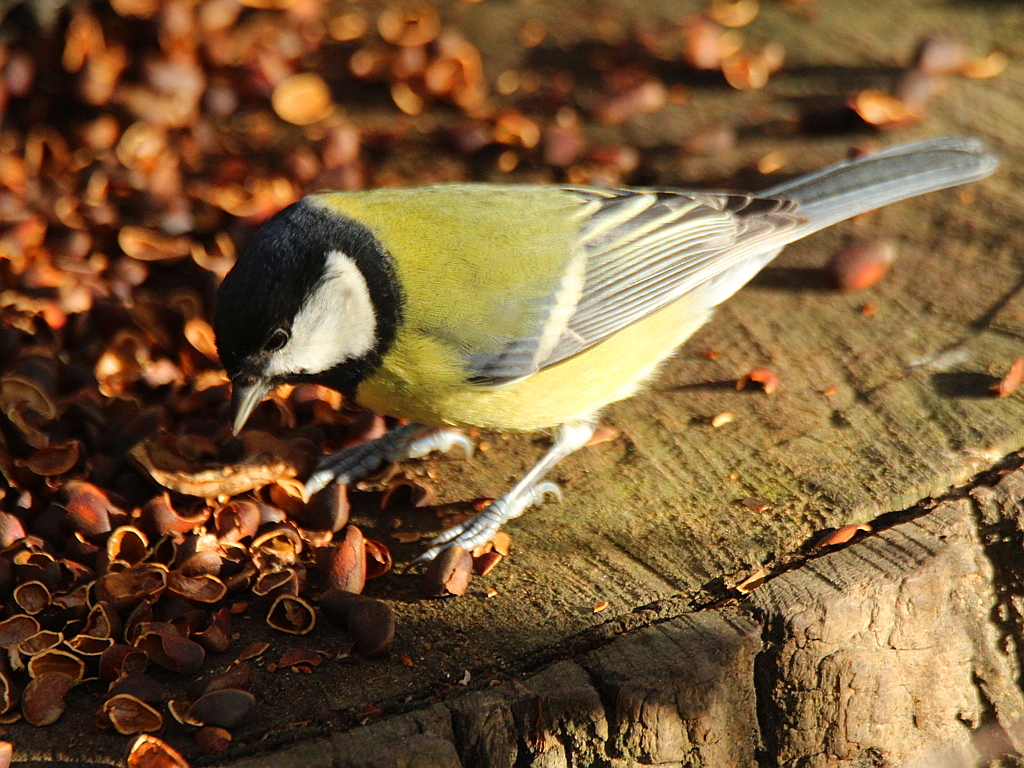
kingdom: Animalia
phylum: Chordata
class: Aves
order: Passeriformes
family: Paridae
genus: Parus
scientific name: Parus major
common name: Great tit
